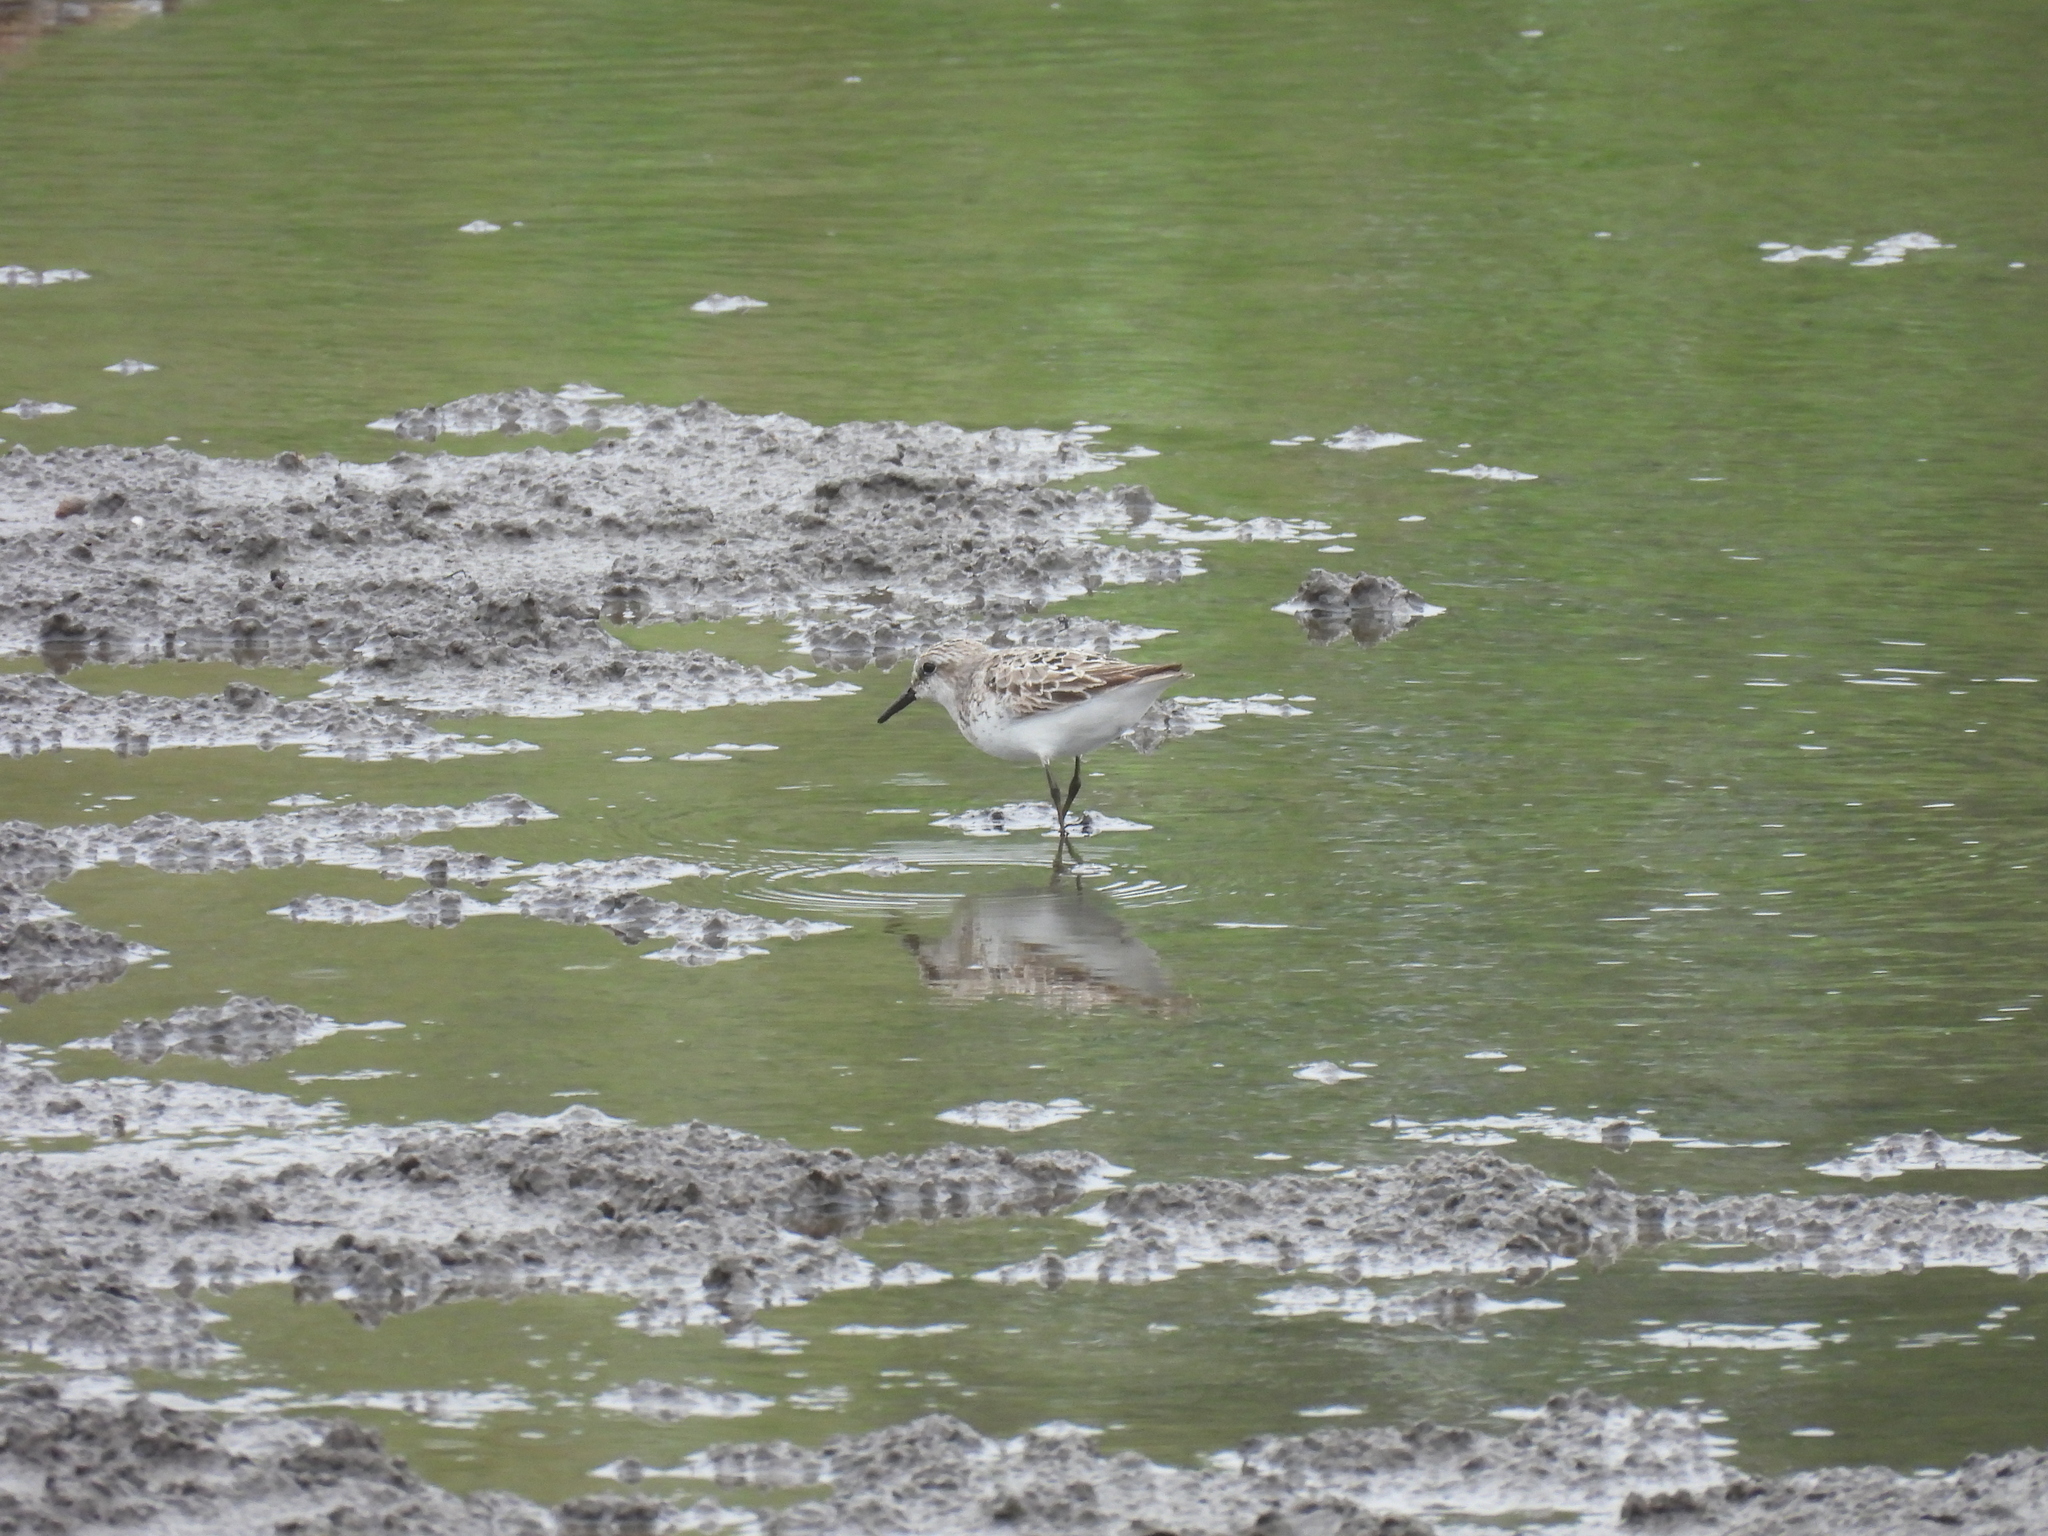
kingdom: Animalia
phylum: Chordata
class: Aves
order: Charadriiformes
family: Scolopacidae
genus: Calidris
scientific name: Calidris pusilla
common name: Semipalmated sandpiper
